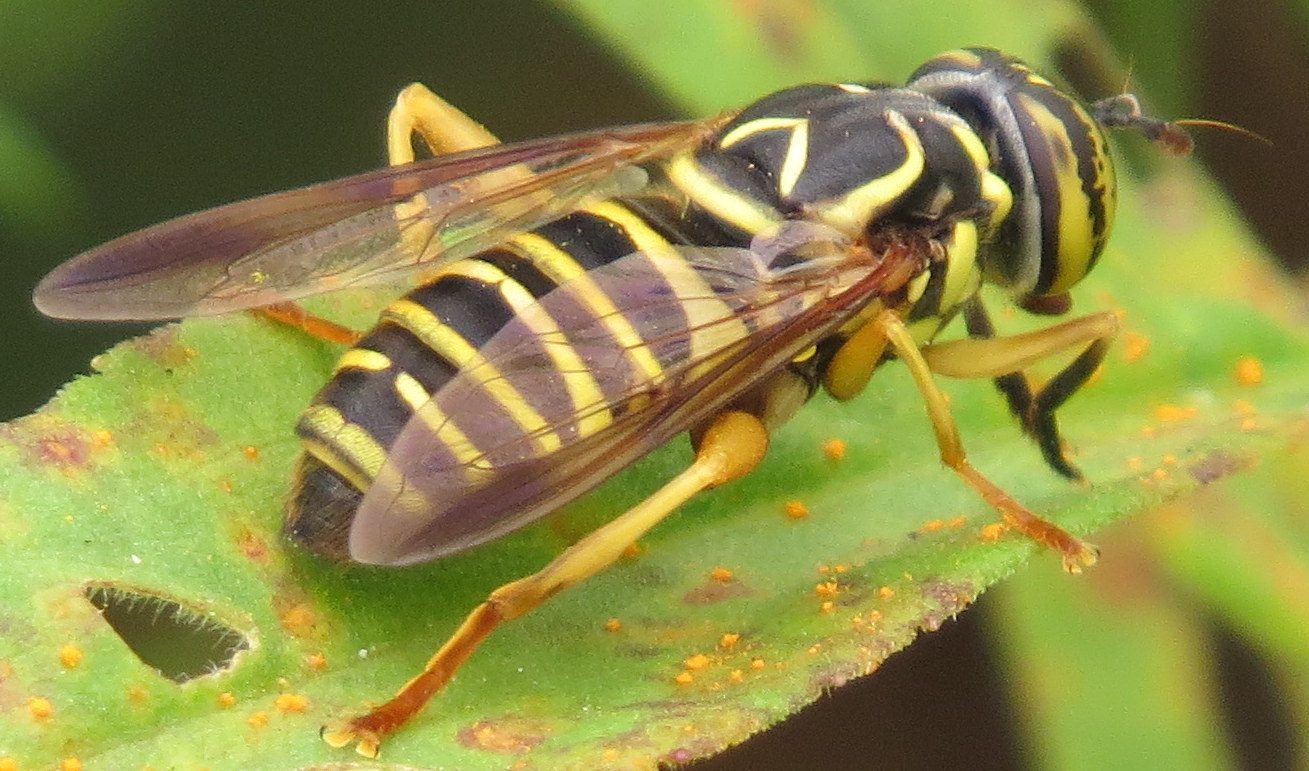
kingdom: Animalia
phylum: Arthropoda
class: Insecta
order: Diptera
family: Syrphidae
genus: Spilomyia
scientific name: Spilomyia longicornis
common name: Eastern hornet fly
